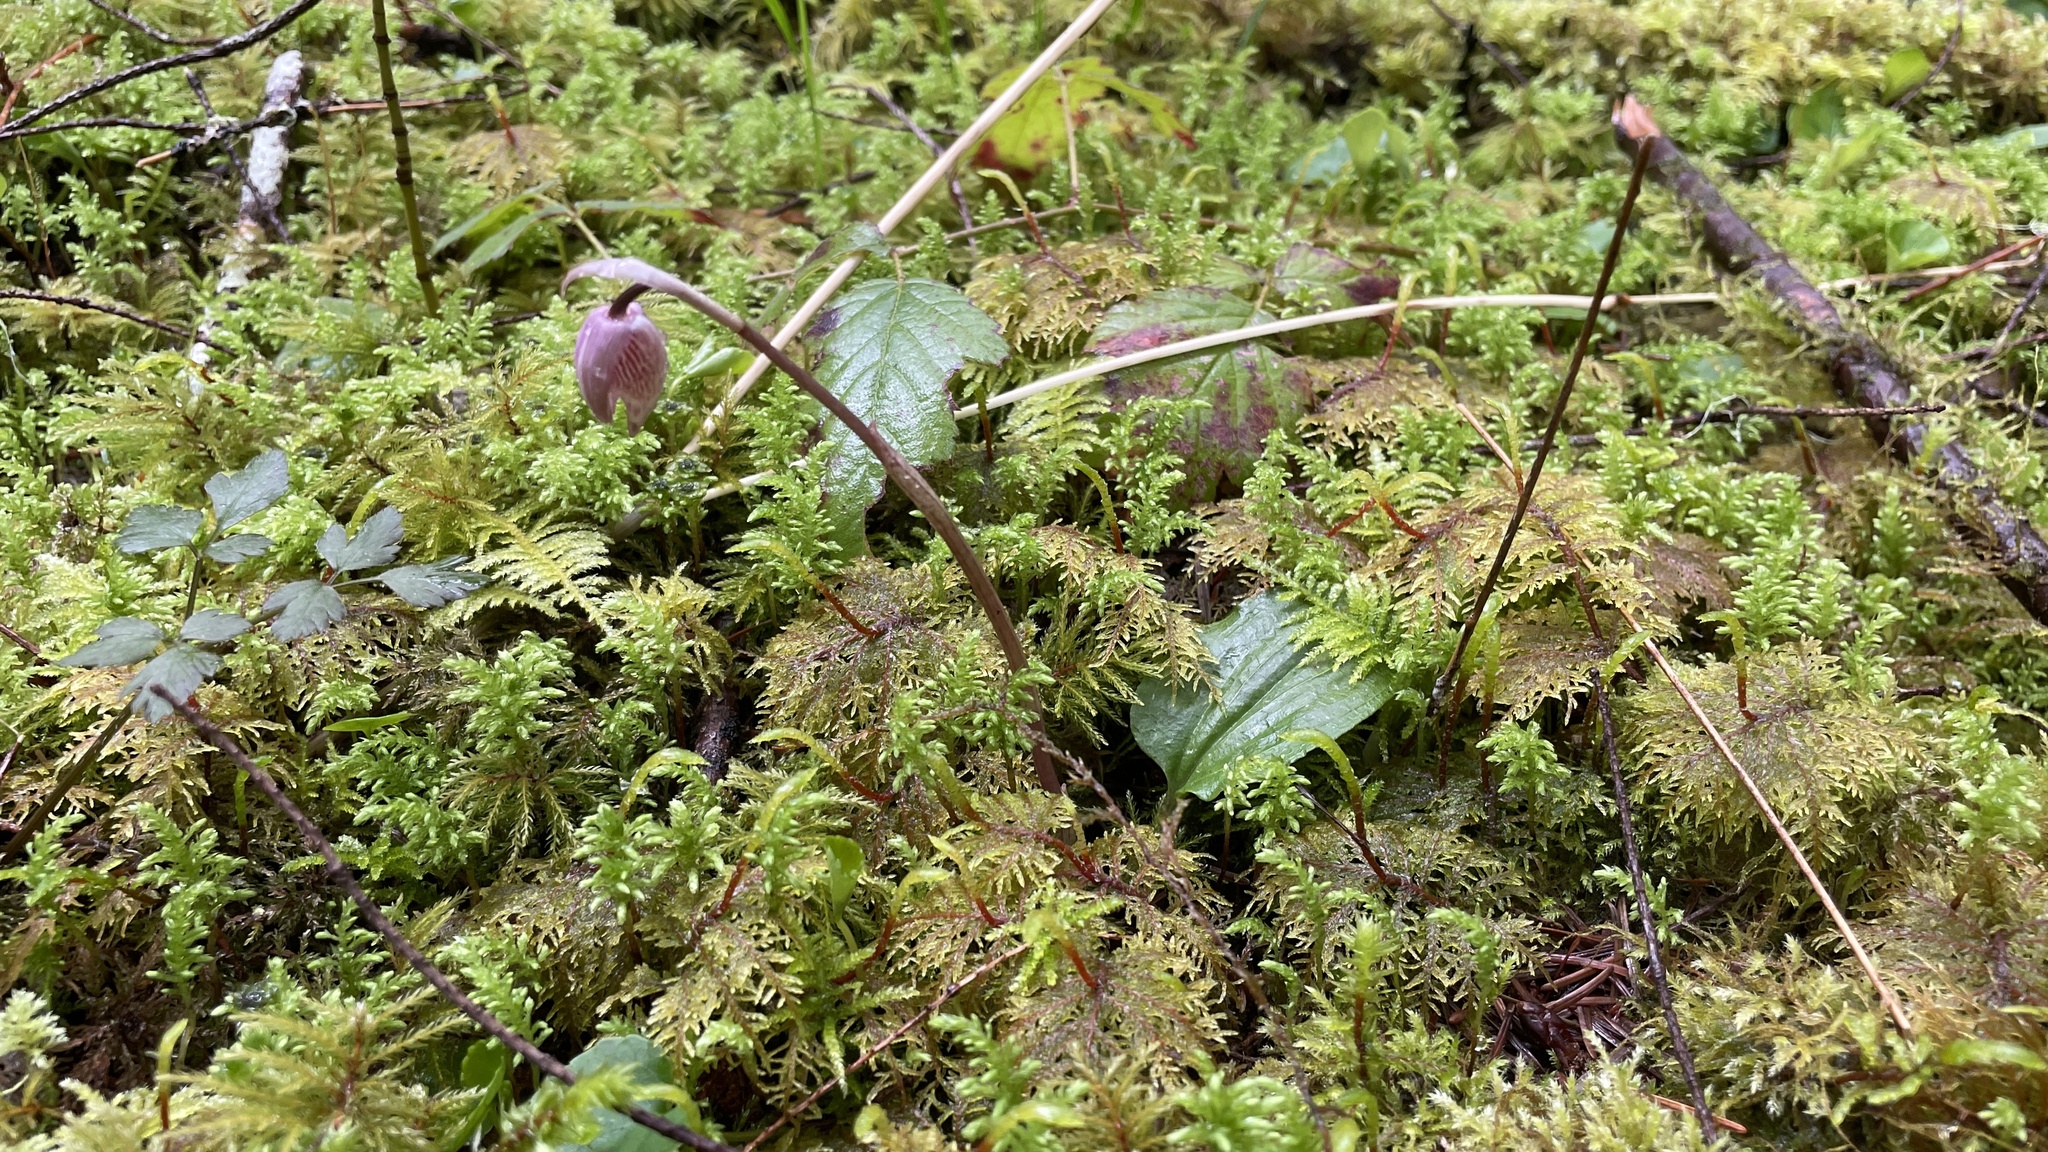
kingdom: Plantae
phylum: Tracheophyta
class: Liliopsida
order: Asparagales
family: Orchidaceae
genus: Calypso
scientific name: Calypso bulbosa
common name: Calypso
